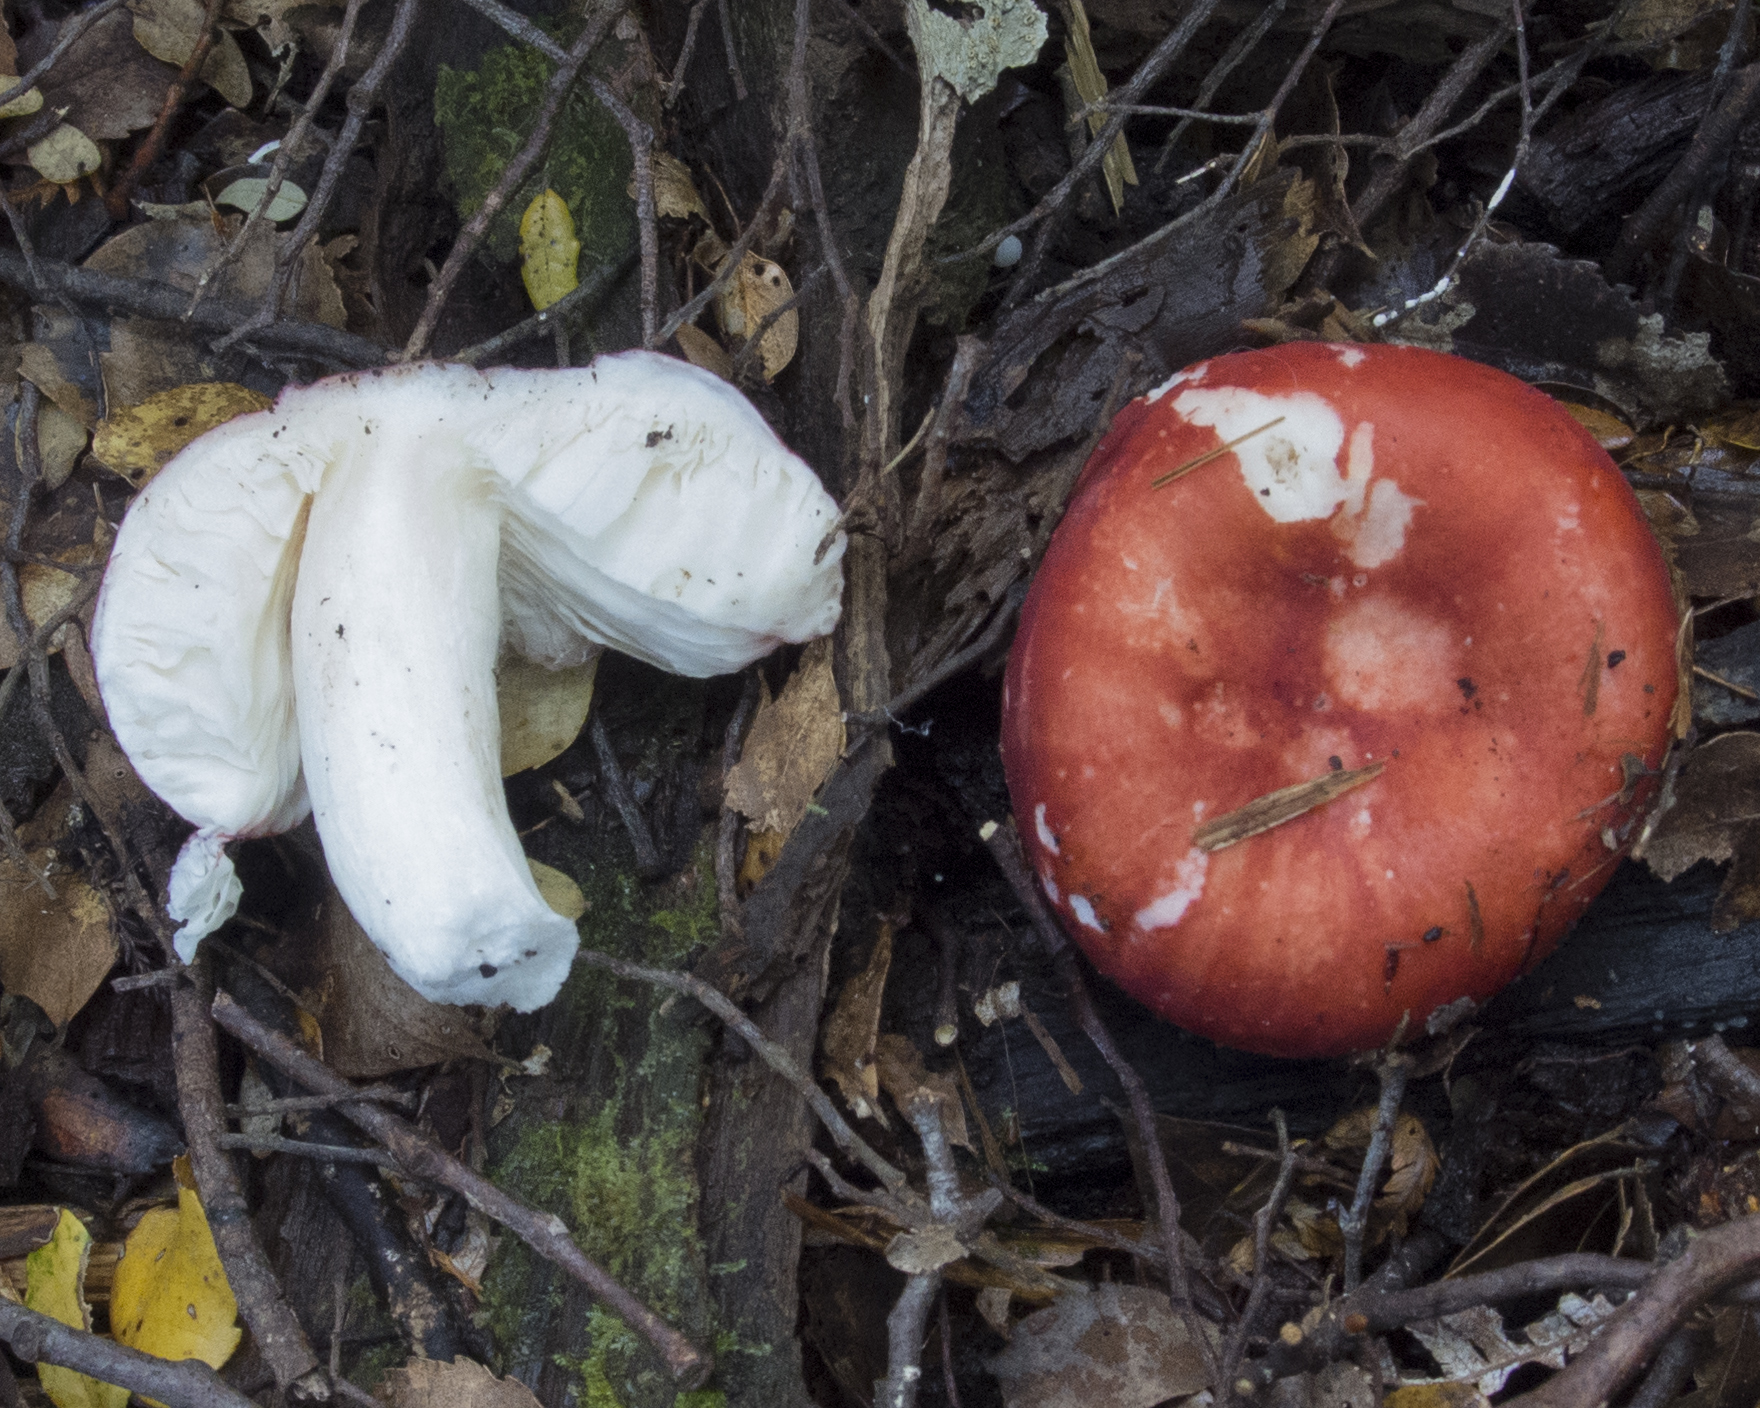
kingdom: Fungi
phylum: Basidiomycota
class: Agaricomycetes
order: Russulales
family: Russulaceae
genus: Russula
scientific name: Russula kermesina
